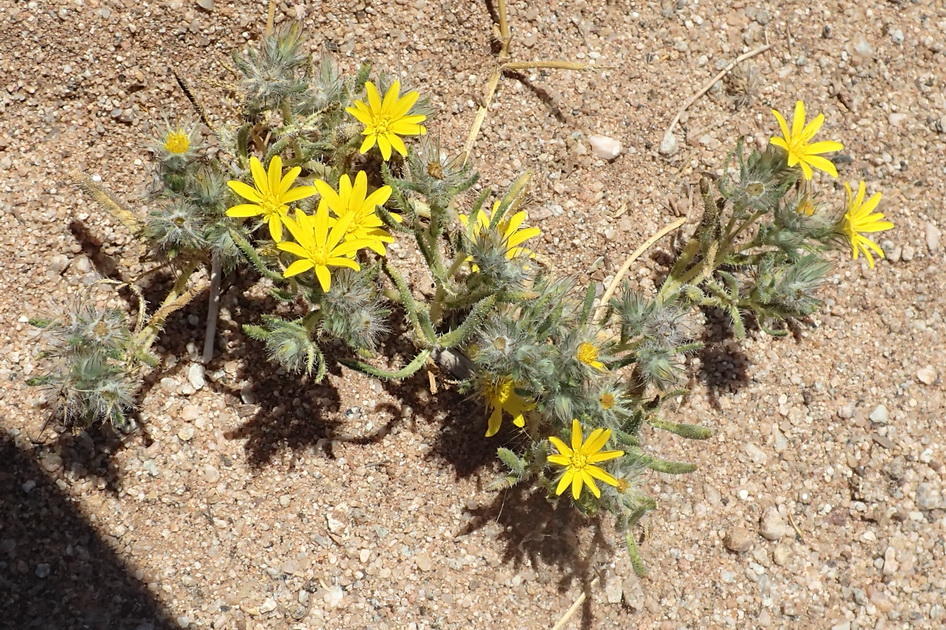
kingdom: Plantae
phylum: Tracheophyta
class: Magnoliopsida
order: Asterales
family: Asteraceae
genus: Gorteria
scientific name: Gorteria corymbosa
